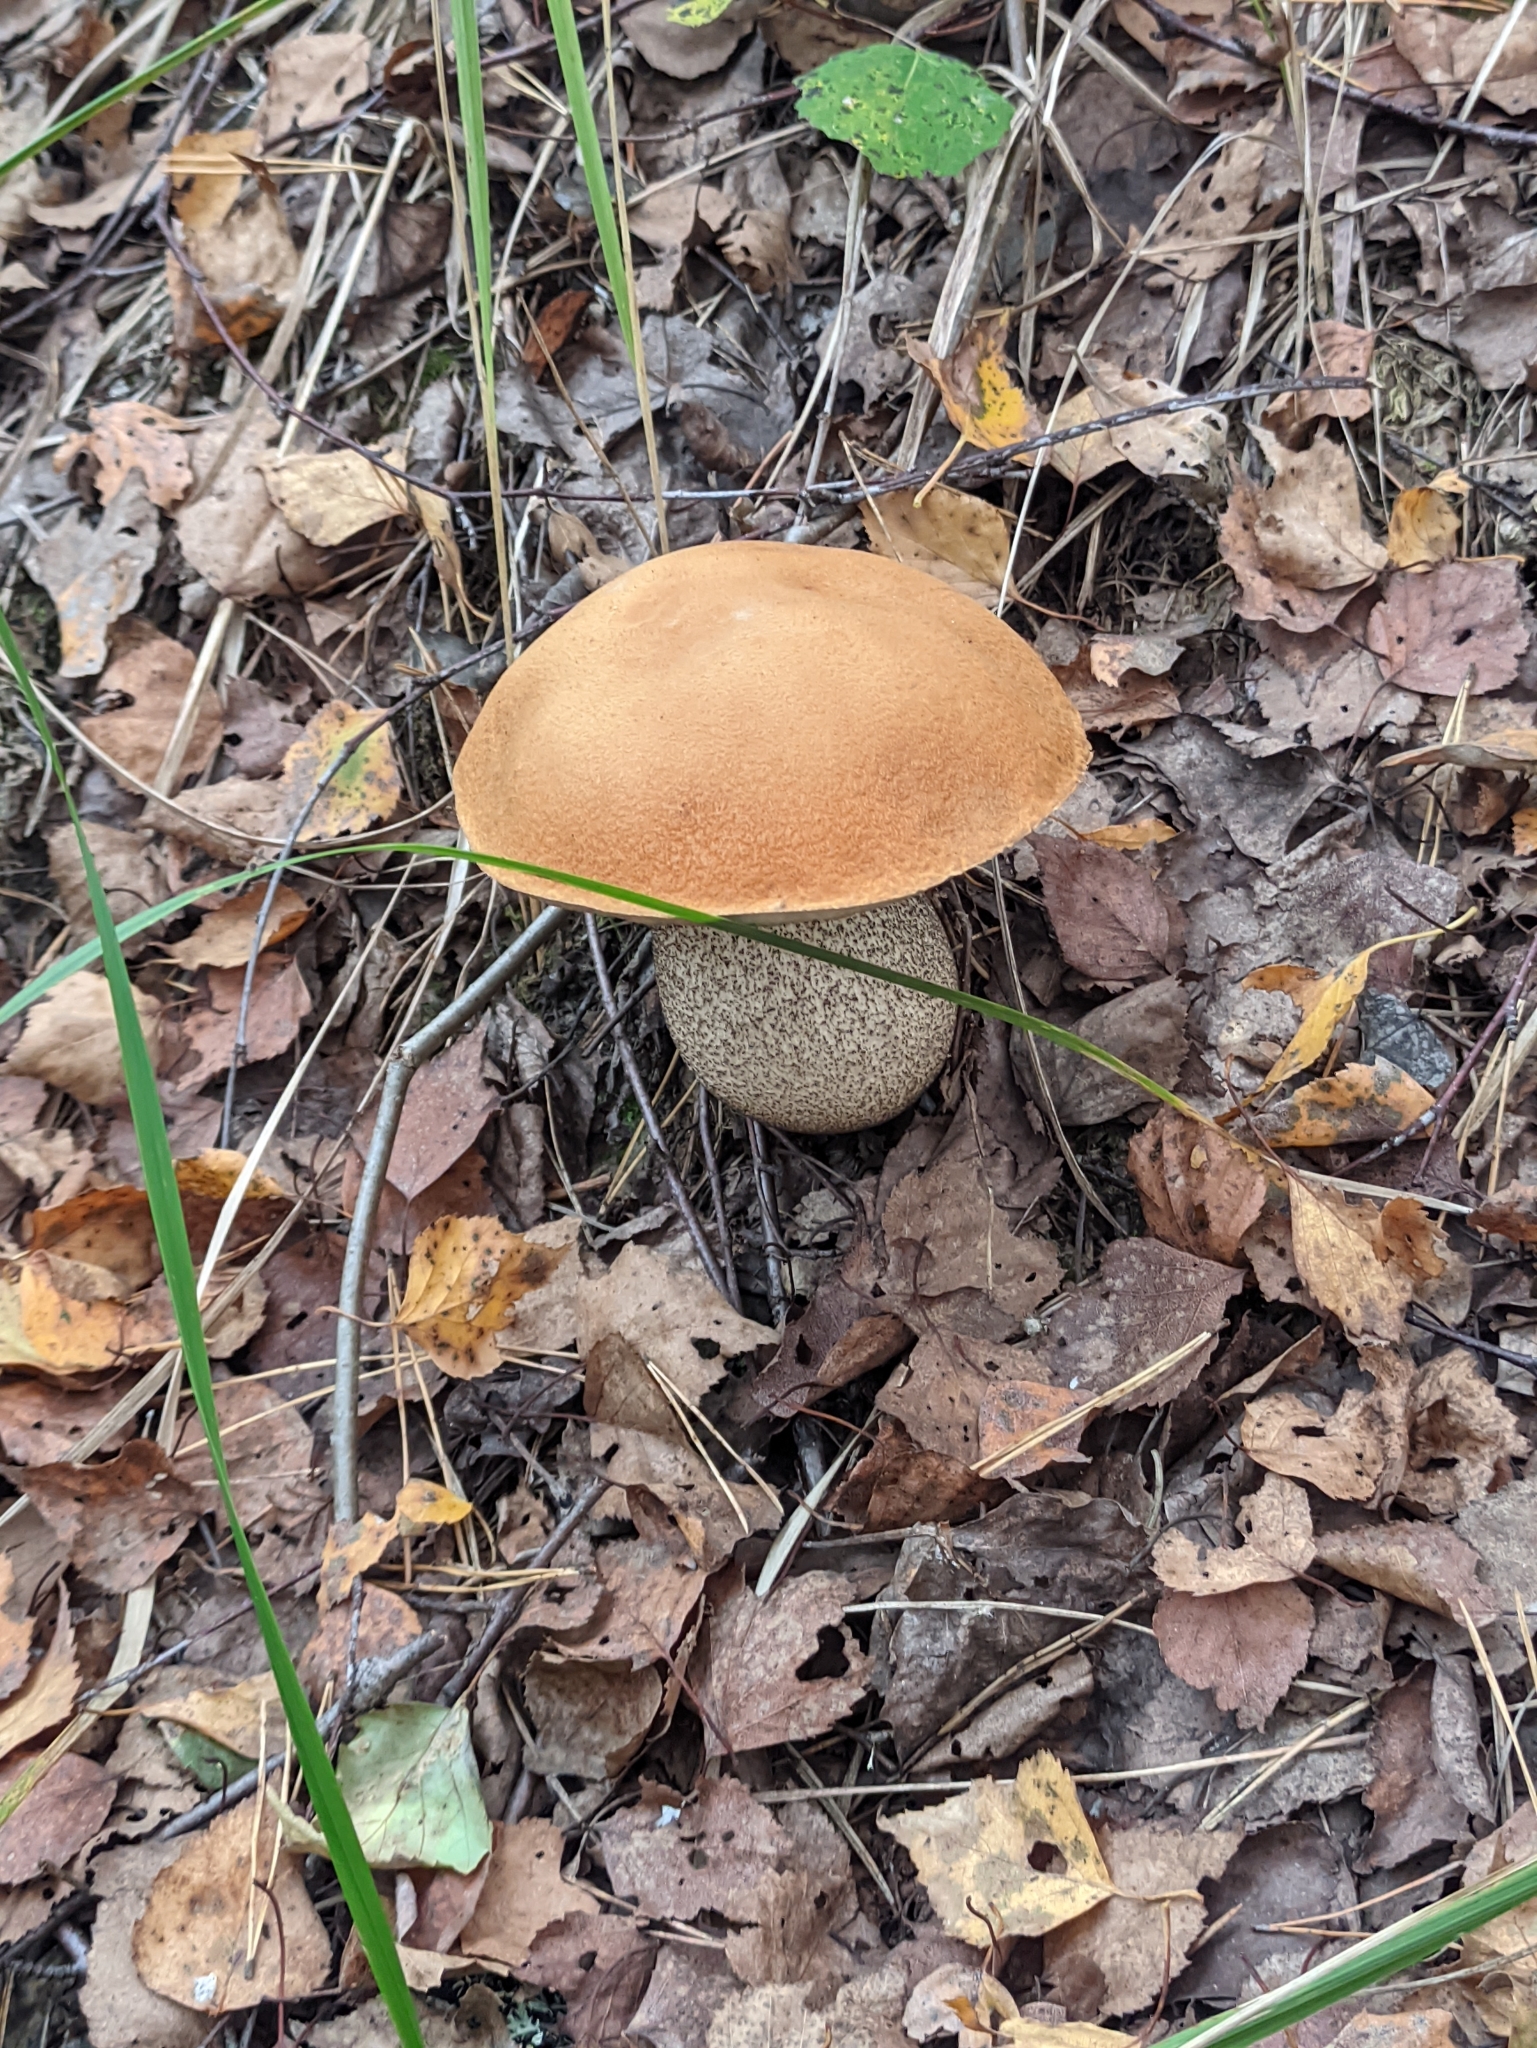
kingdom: Fungi
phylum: Basidiomycota
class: Agaricomycetes
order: Boletales
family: Boletaceae
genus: Leccinum
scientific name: Leccinum versipelle
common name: Orange birch bolete
